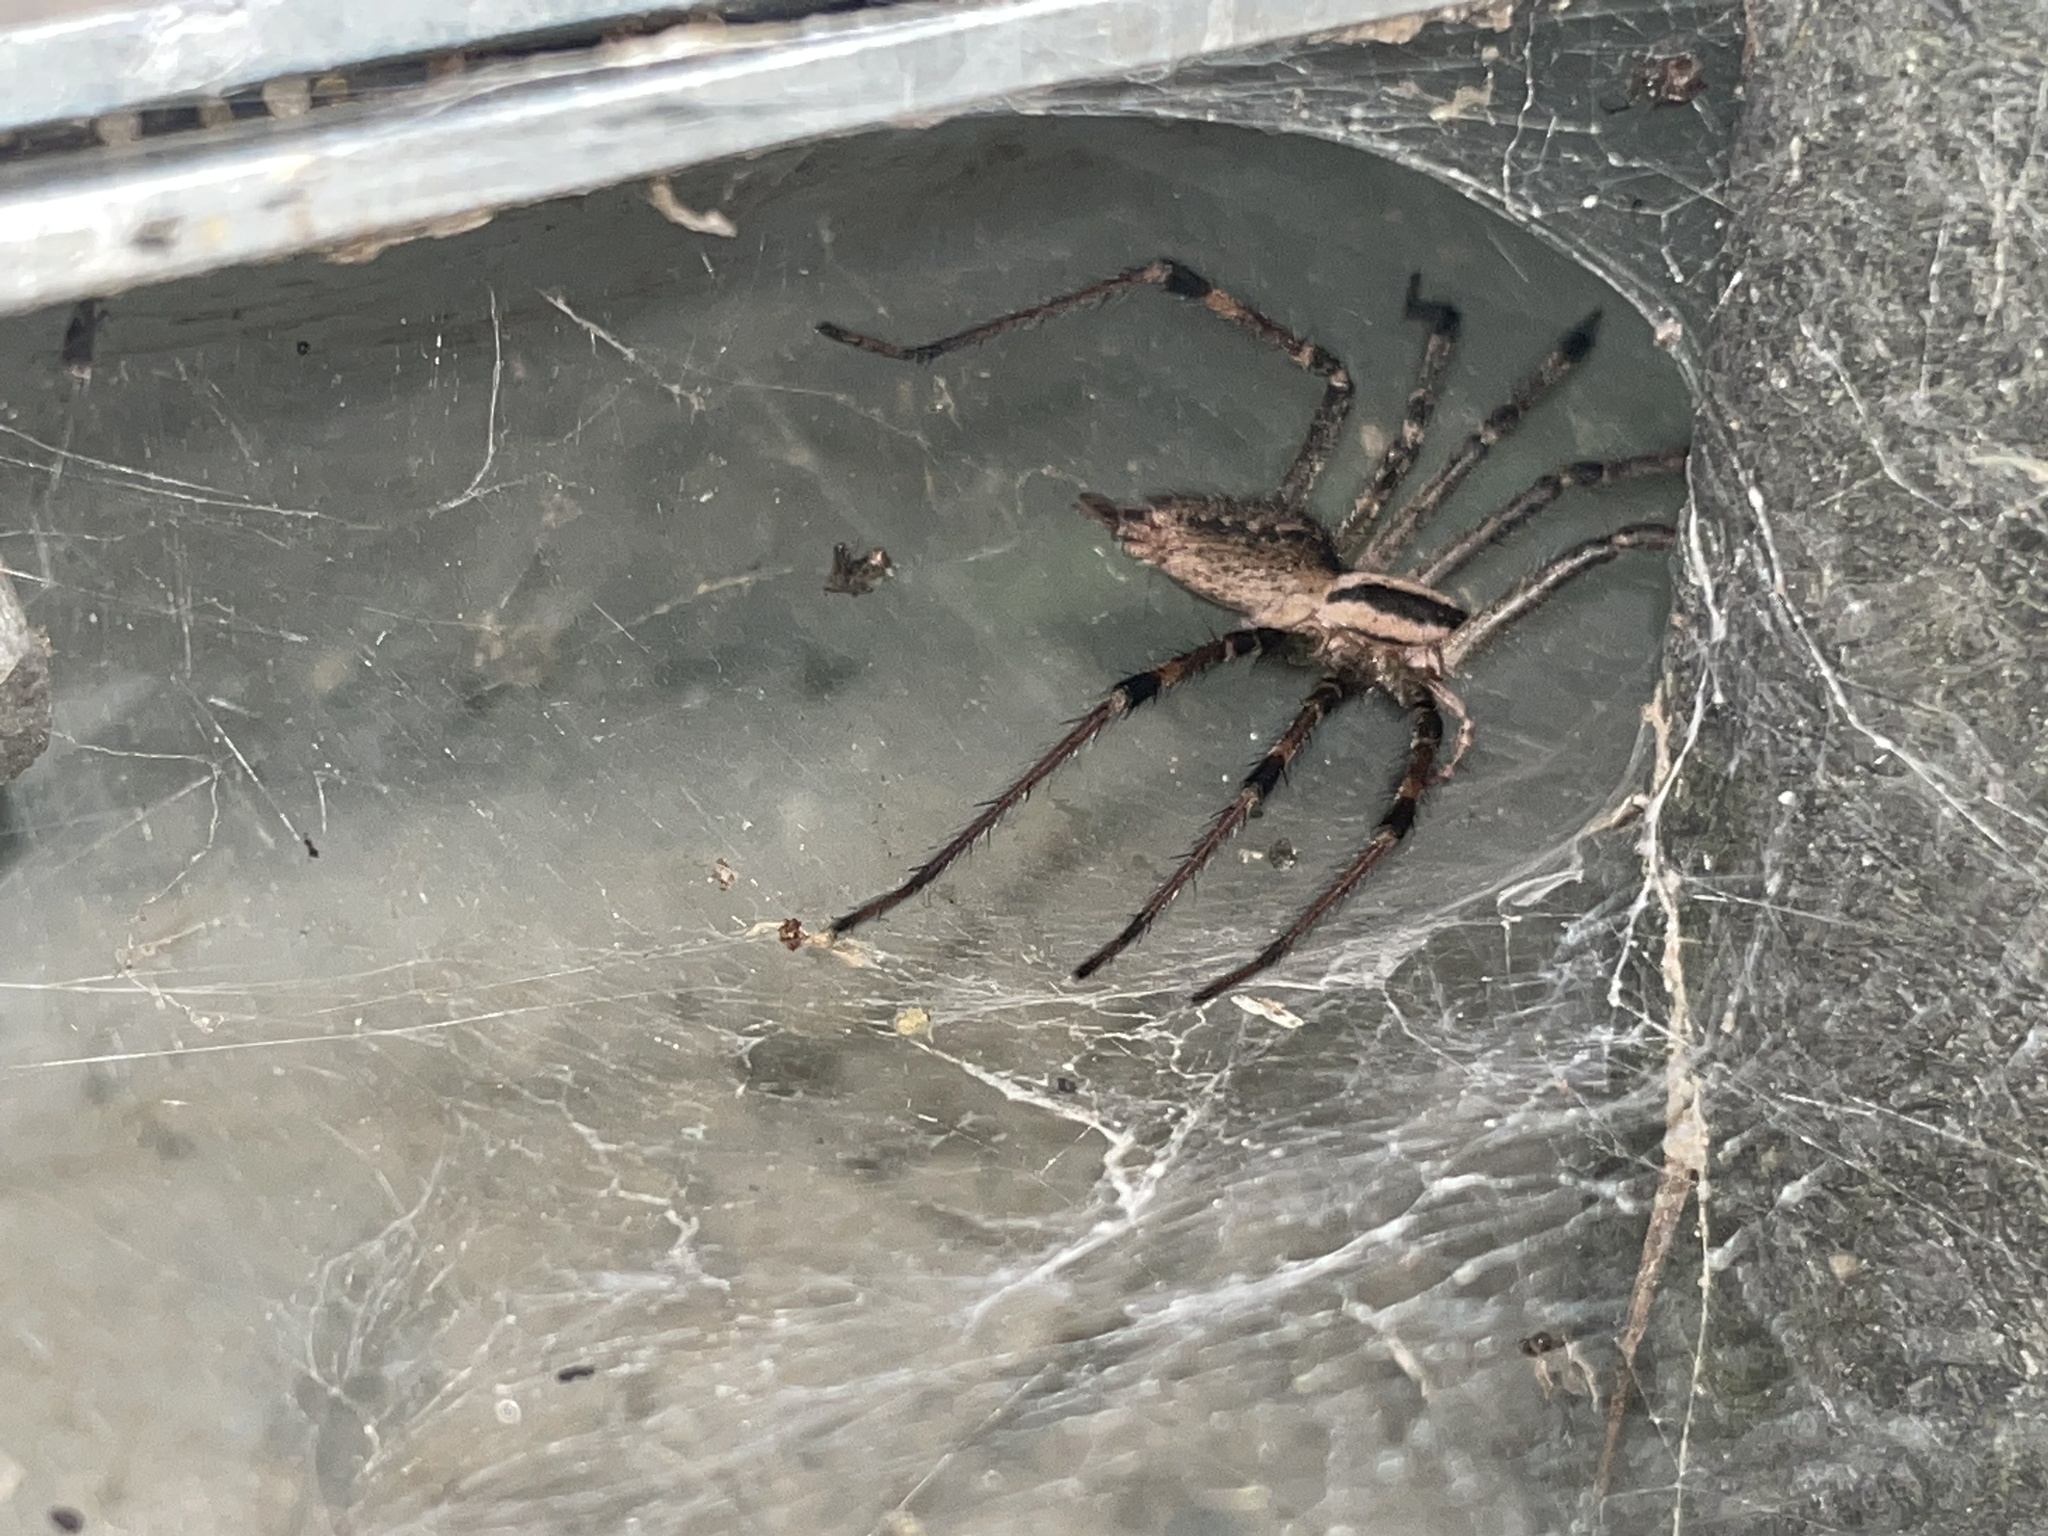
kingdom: Animalia
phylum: Arthropoda
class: Arachnida
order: Araneae
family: Agelenidae
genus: Agelenopsis
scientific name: Agelenopsis
